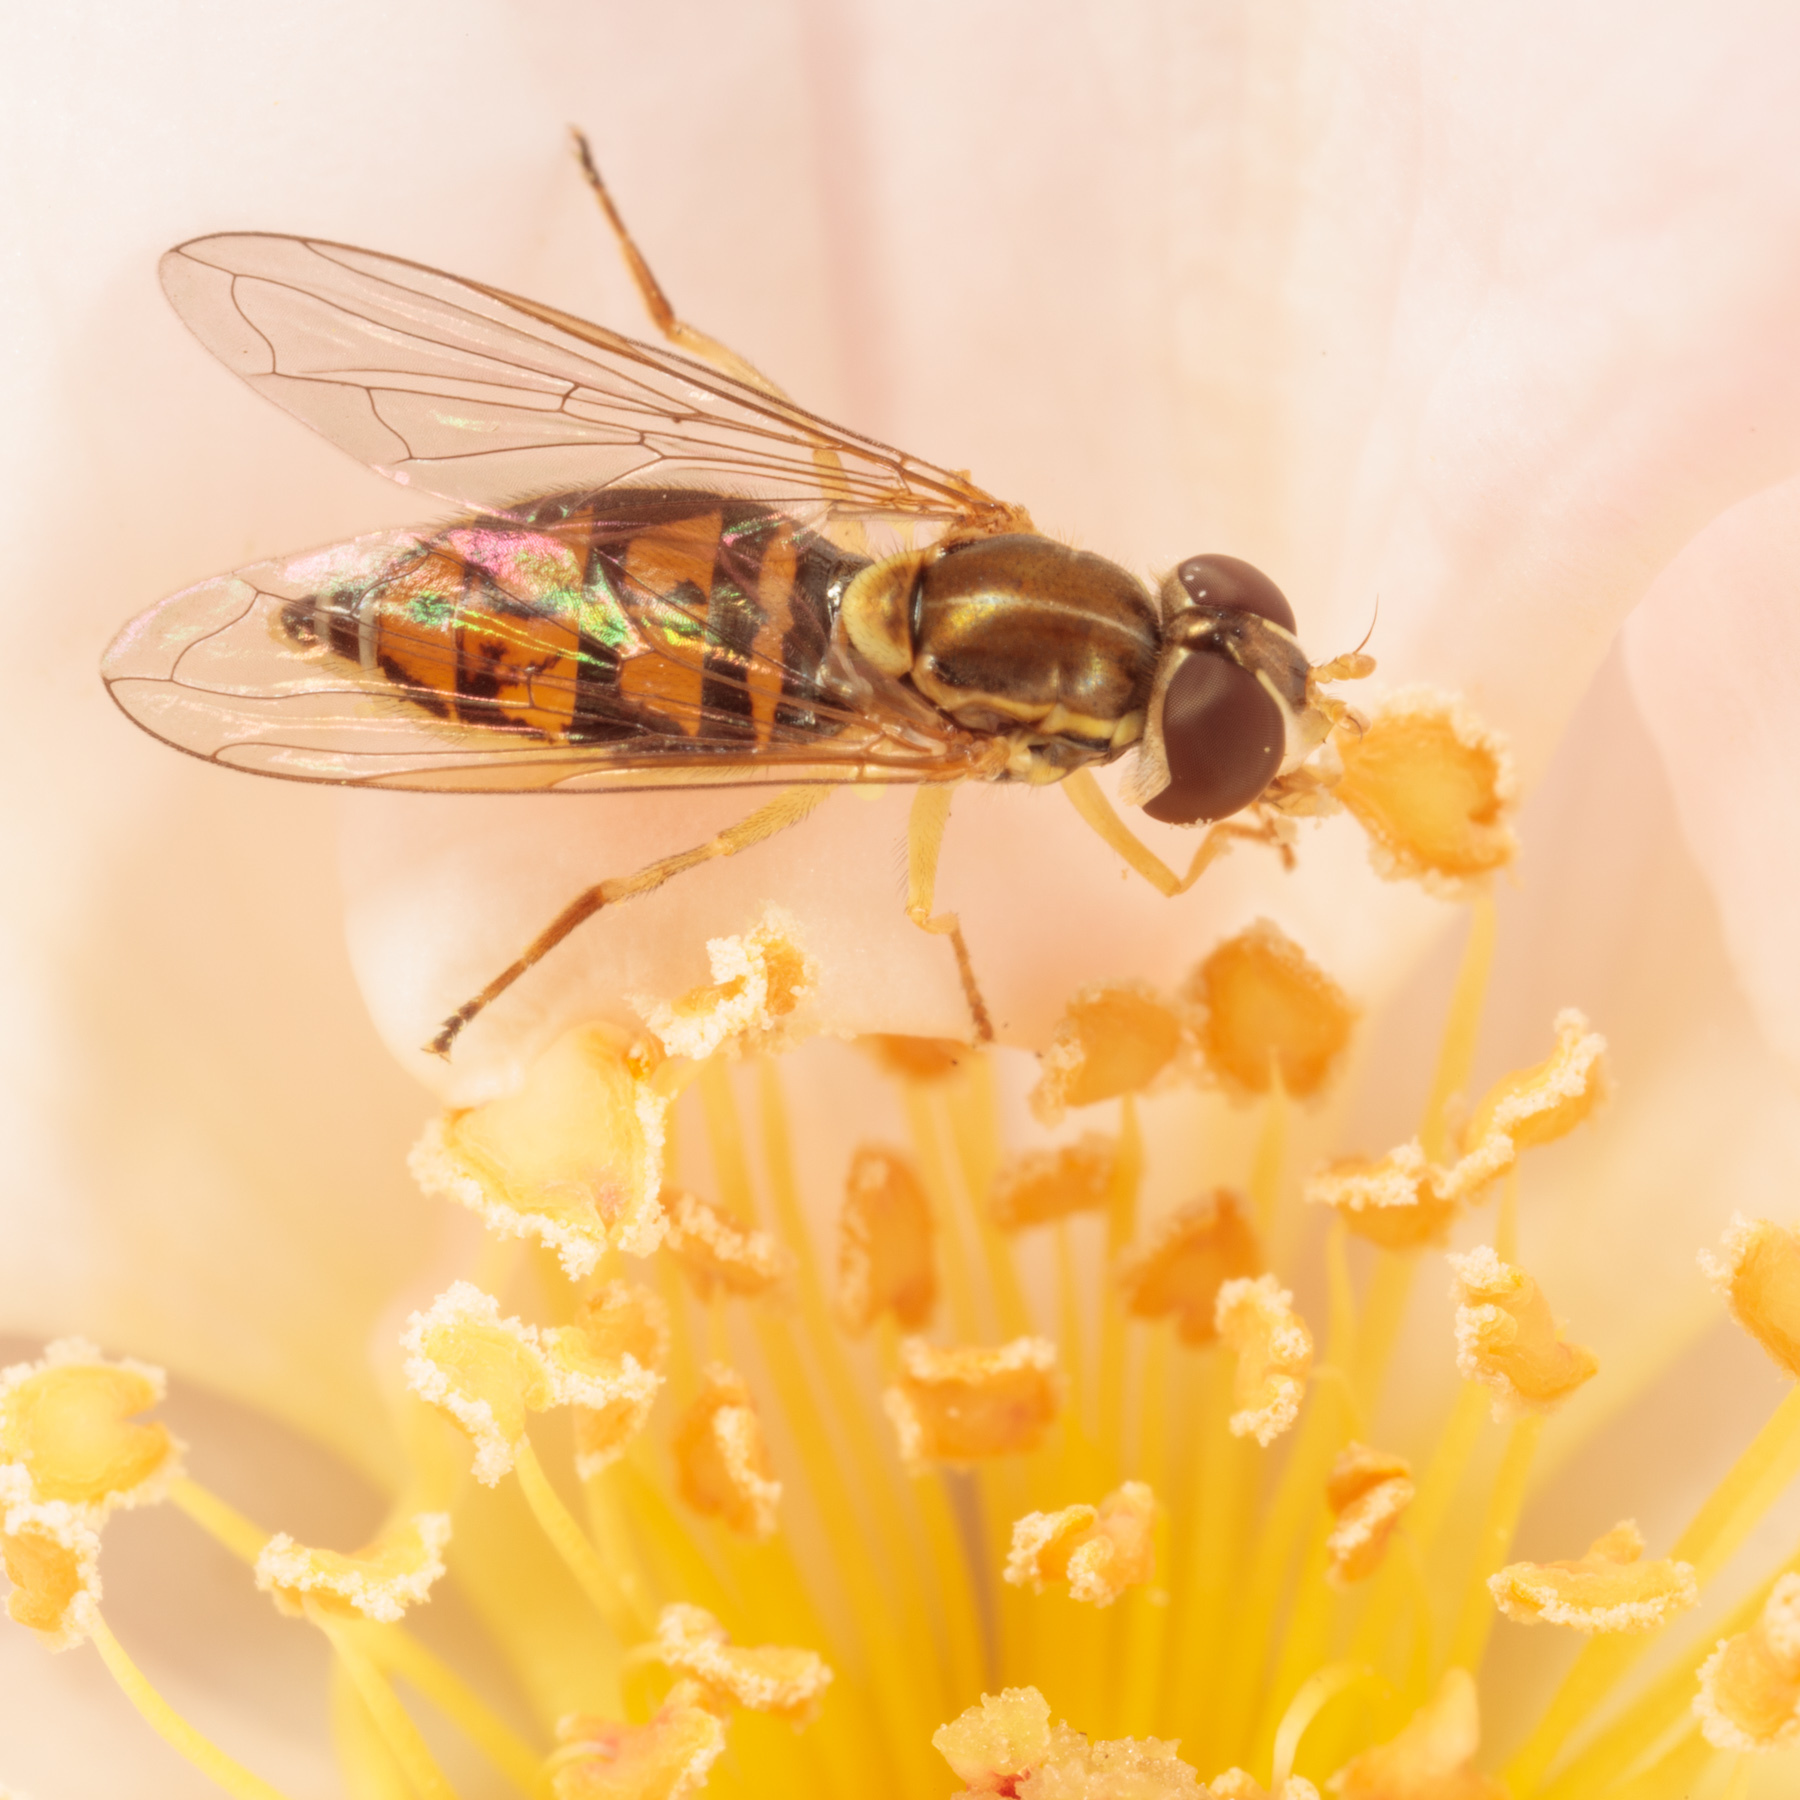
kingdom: Animalia
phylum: Arthropoda
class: Insecta
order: Diptera
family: Syrphidae
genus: Toxomerus
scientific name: Toxomerus marginatus
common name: Syrphid fly
